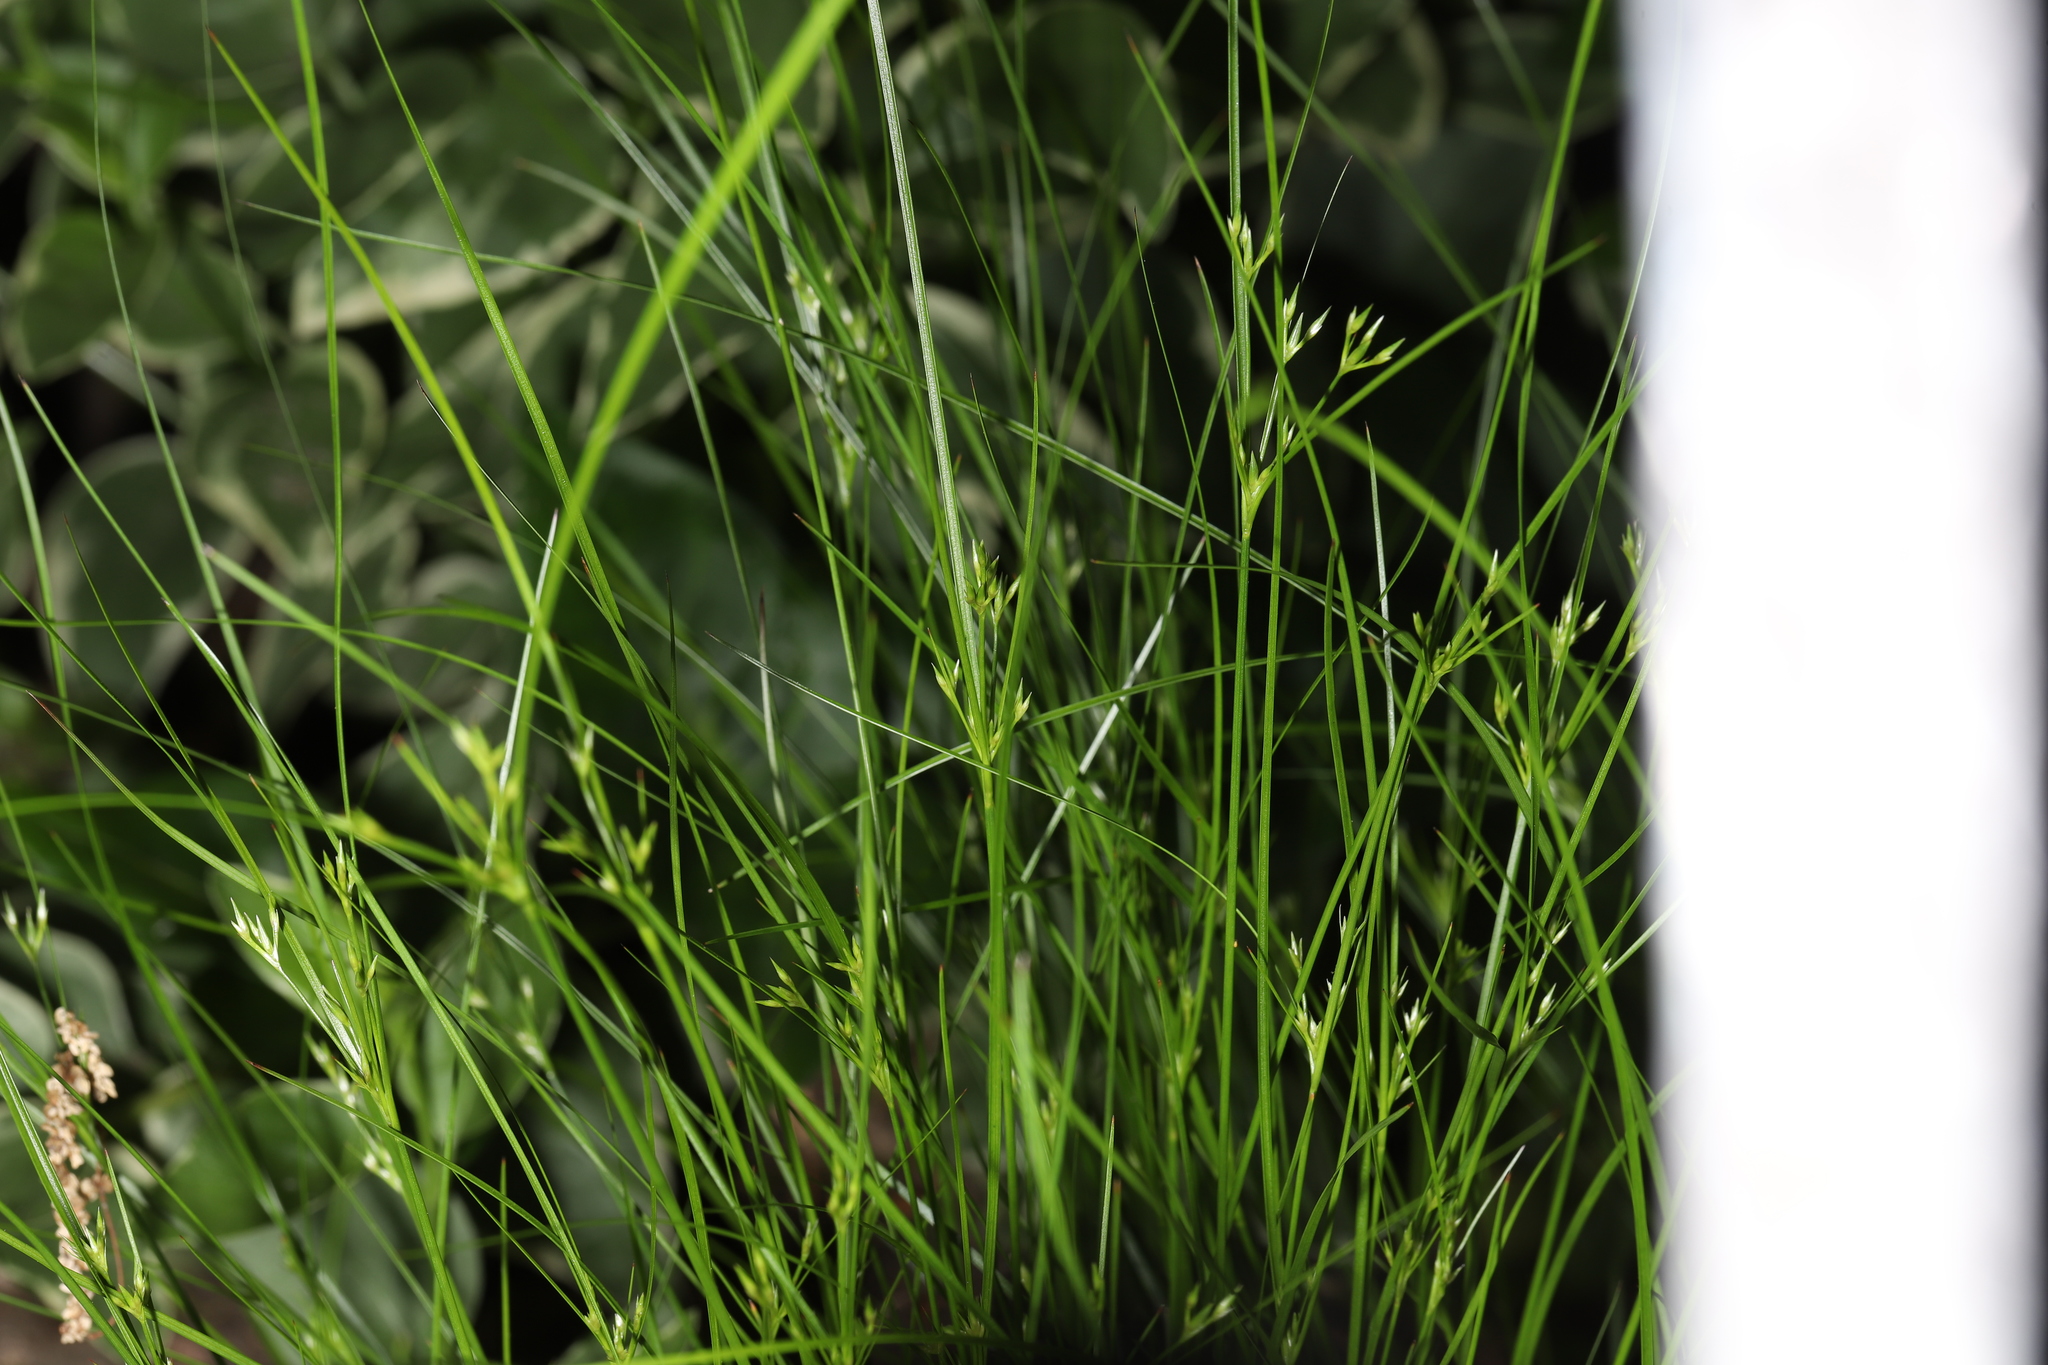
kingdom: Plantae
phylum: Tracheophyta
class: Liliopsida
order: Poales
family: Juncaceae
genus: Juncus
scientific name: Juncus tenuis
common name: Slender rush
